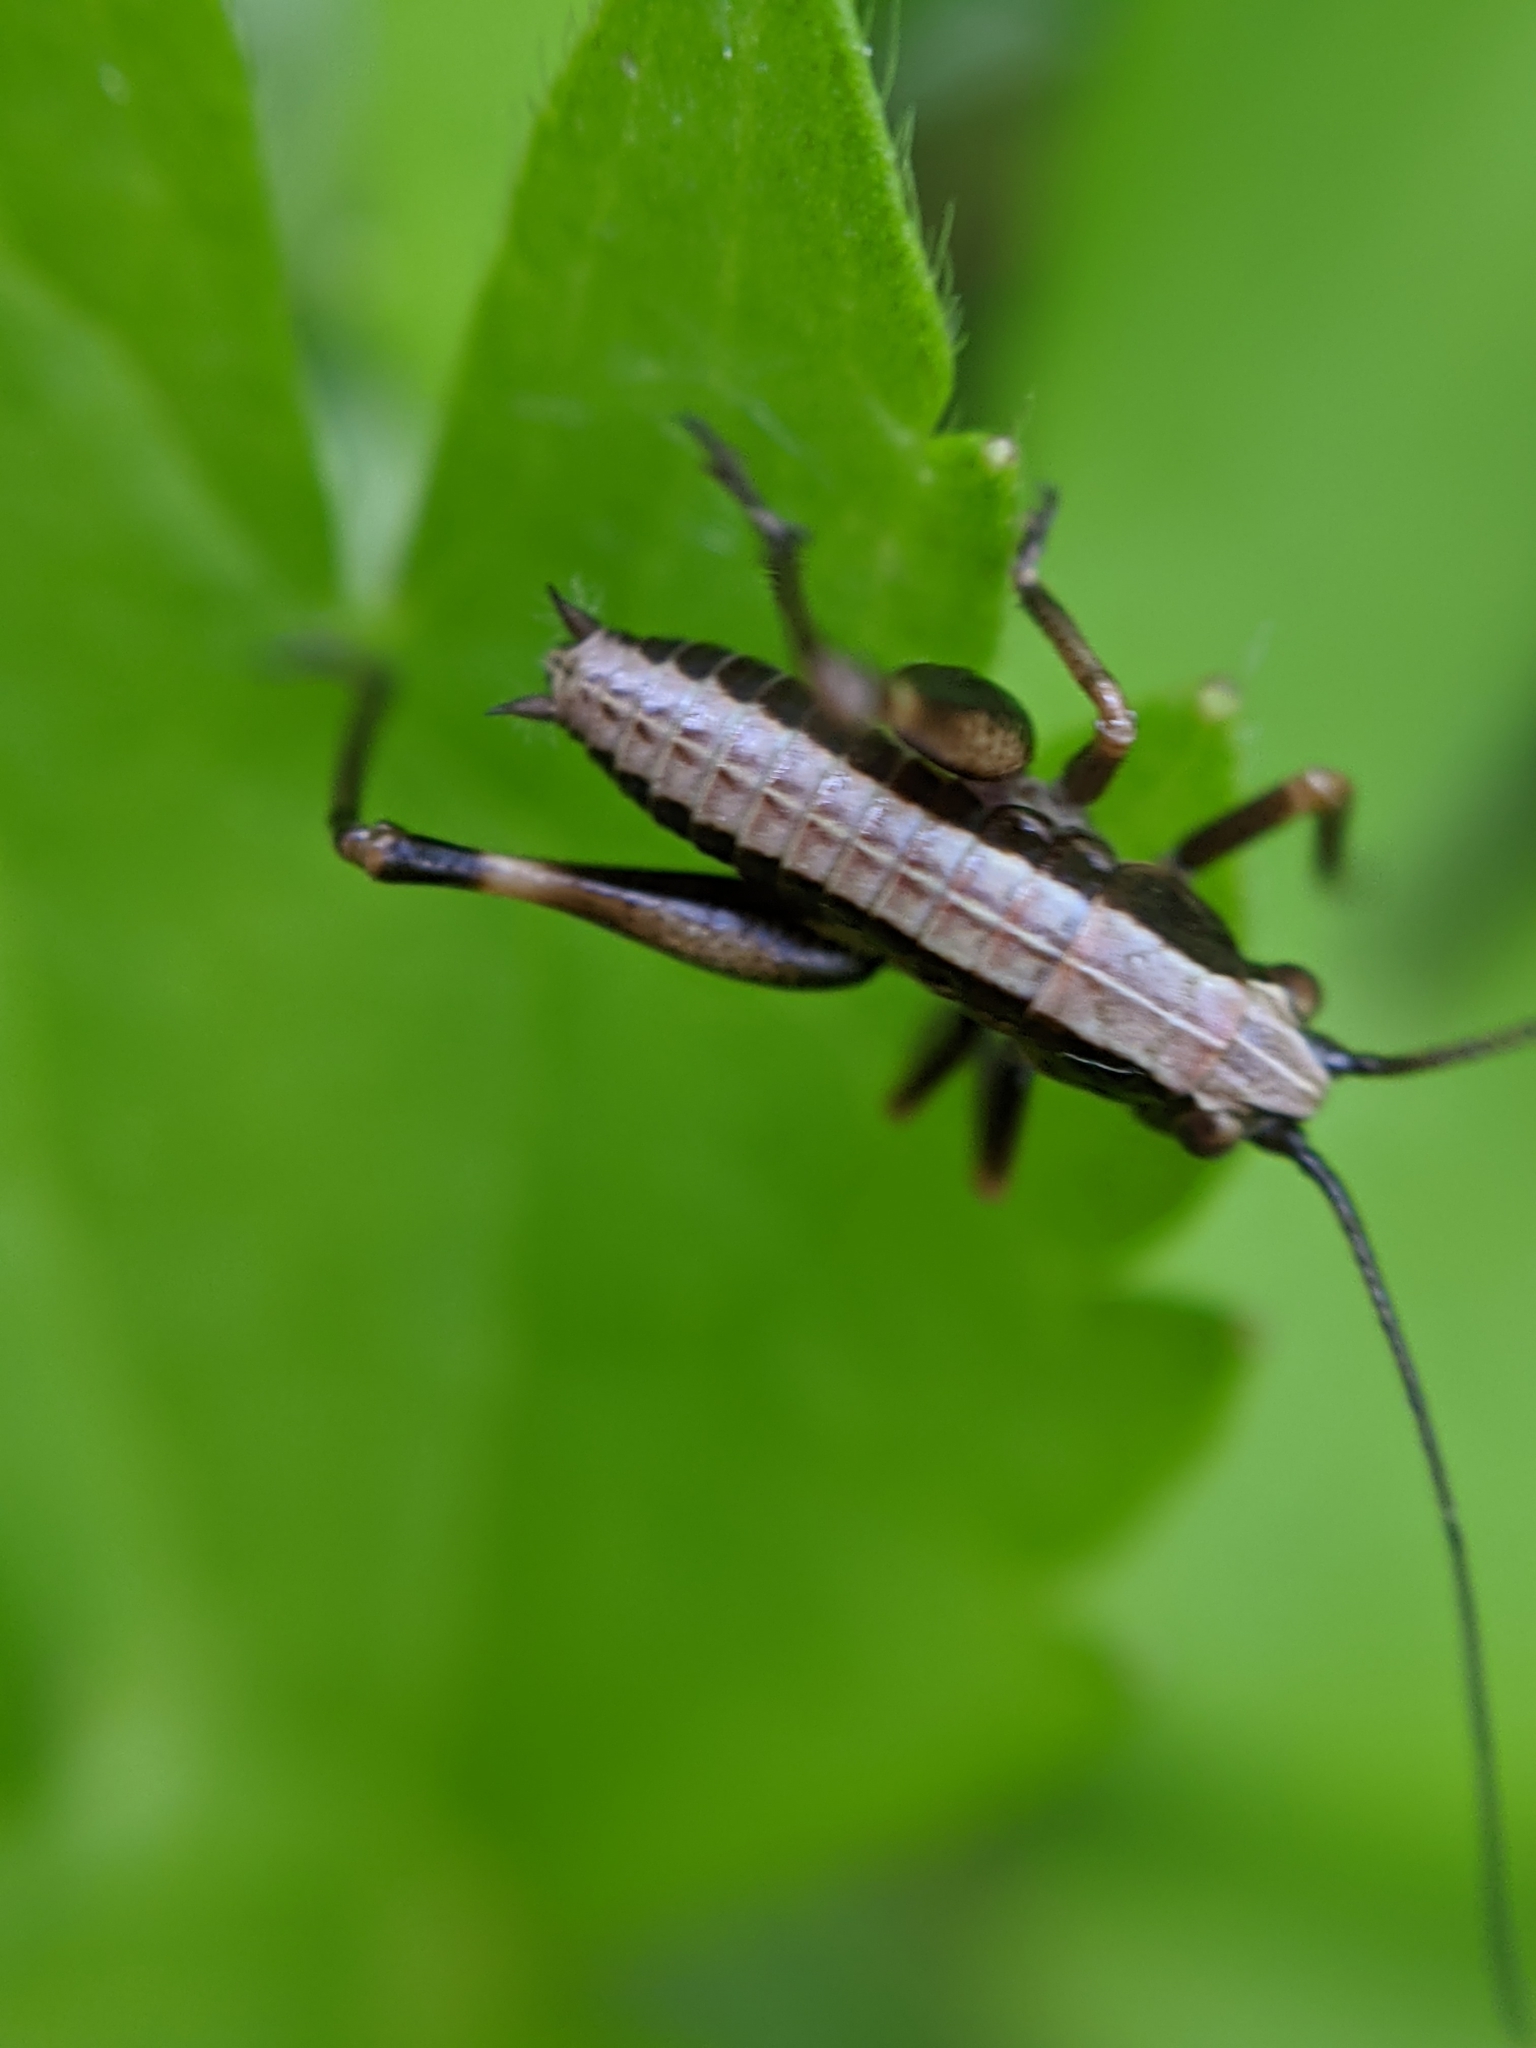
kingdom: Animalia
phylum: Arthropoda
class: Insecta
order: Orthoptera
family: Tettigoniidae
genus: Pholidoptera
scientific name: Pholidoptera griseoaptera
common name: Dark bush-cricket
